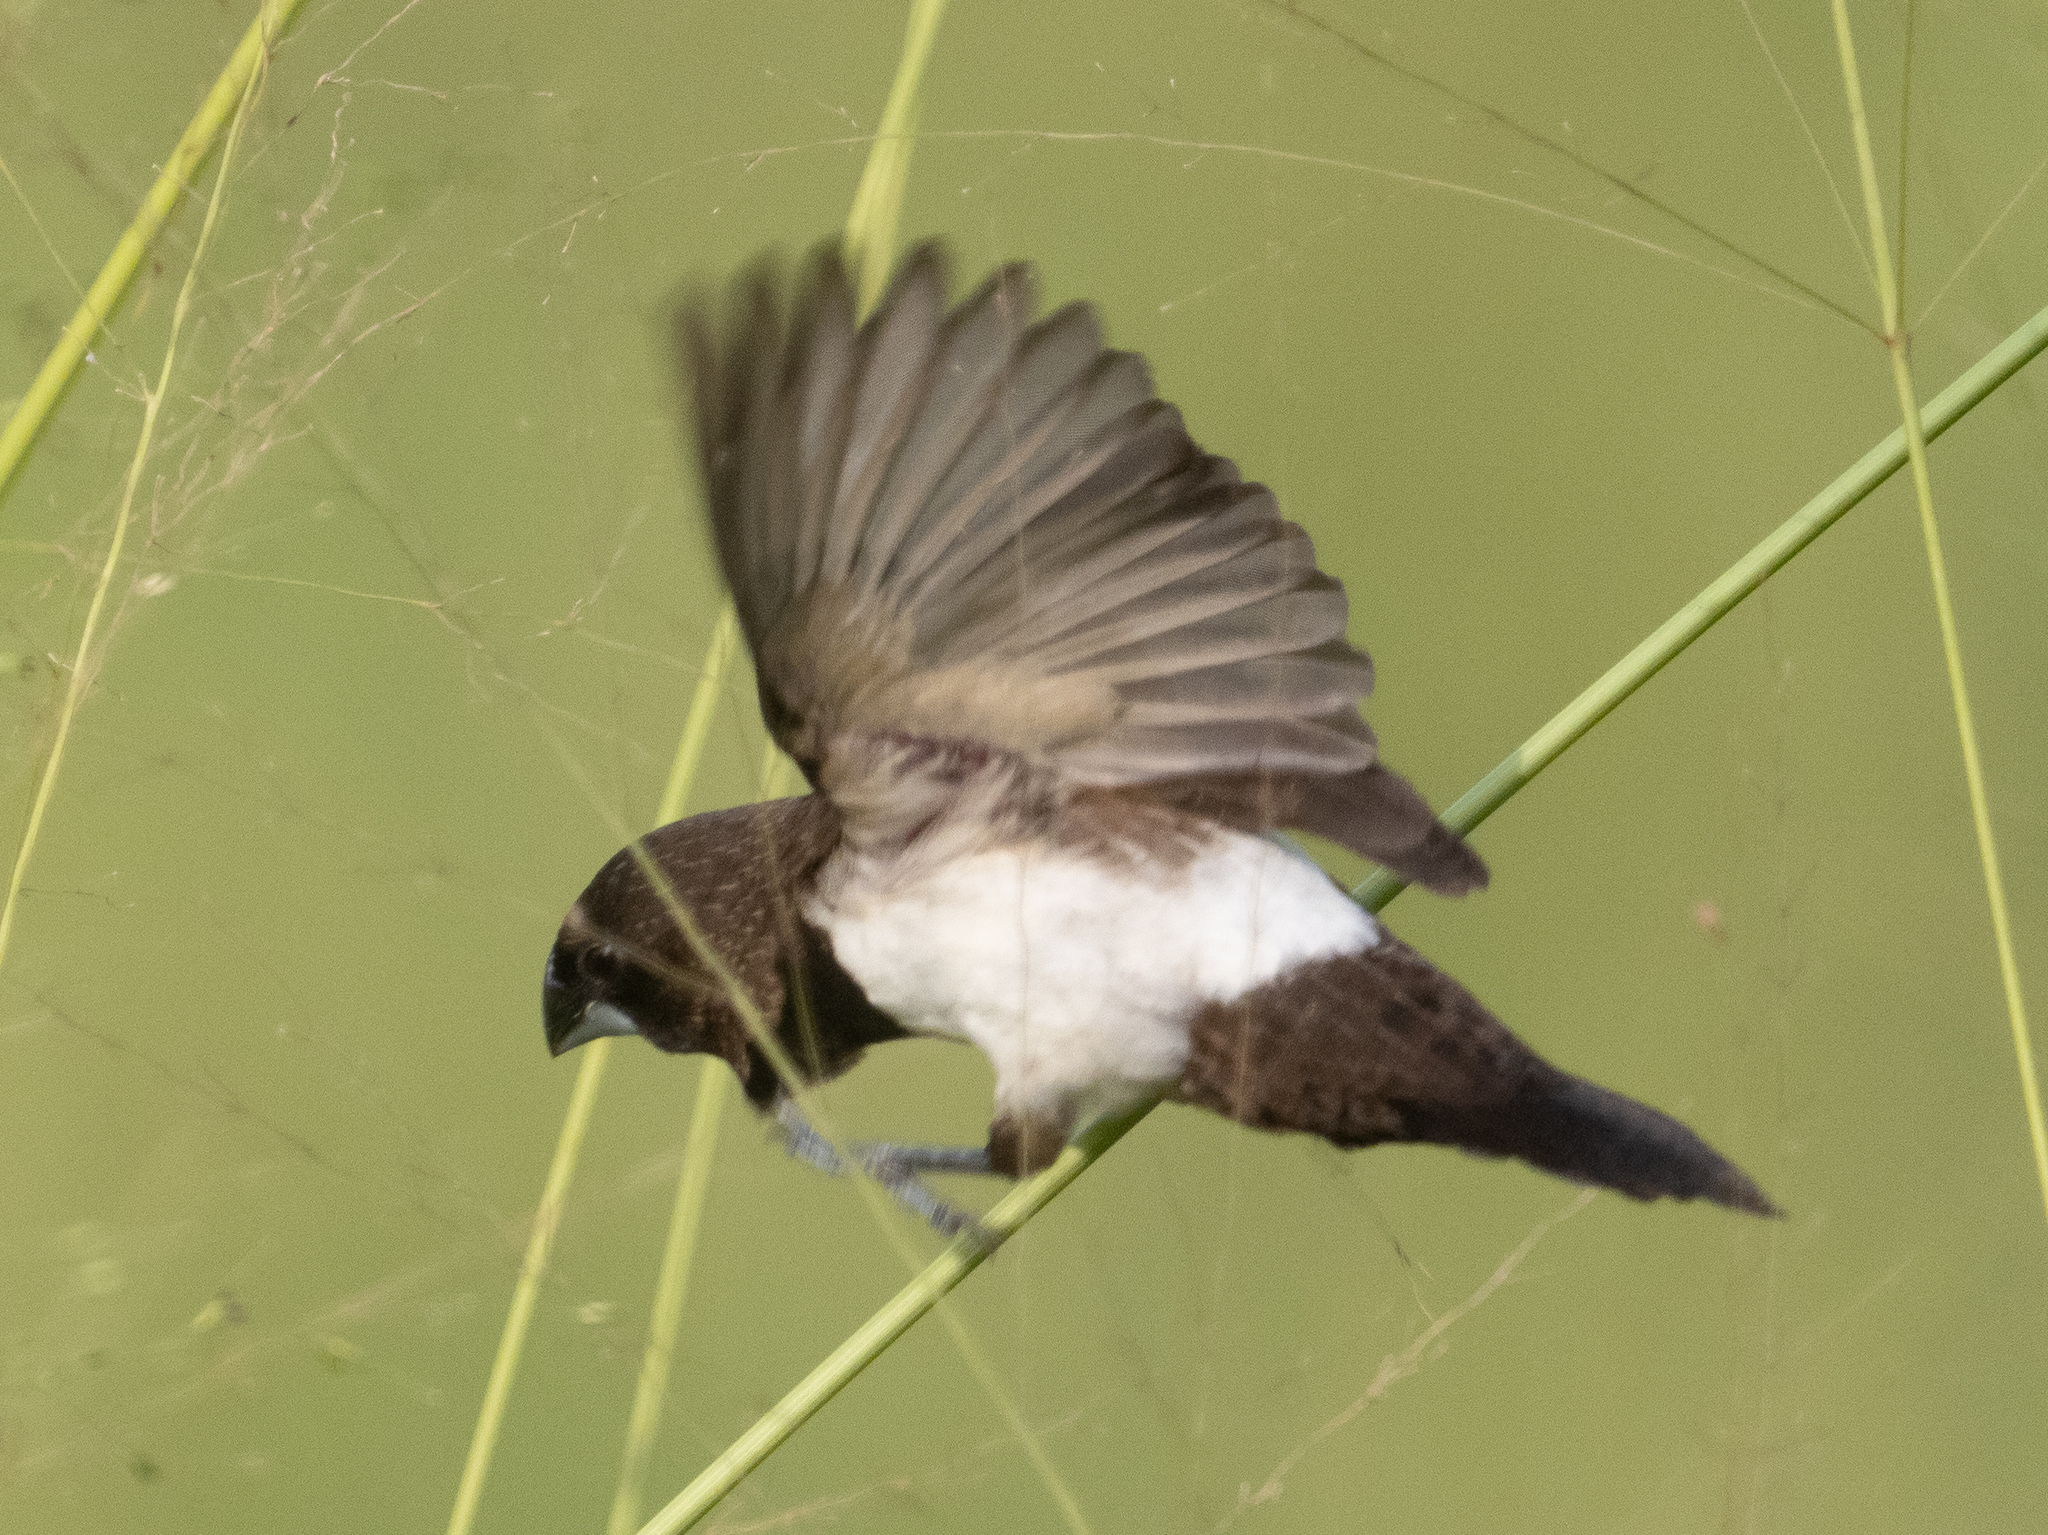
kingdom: Animalia
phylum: Chordata
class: Aves
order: Passeriformes
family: Estrildidae
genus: Lonchura
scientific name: Lonchura striata
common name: White-rumped munia
